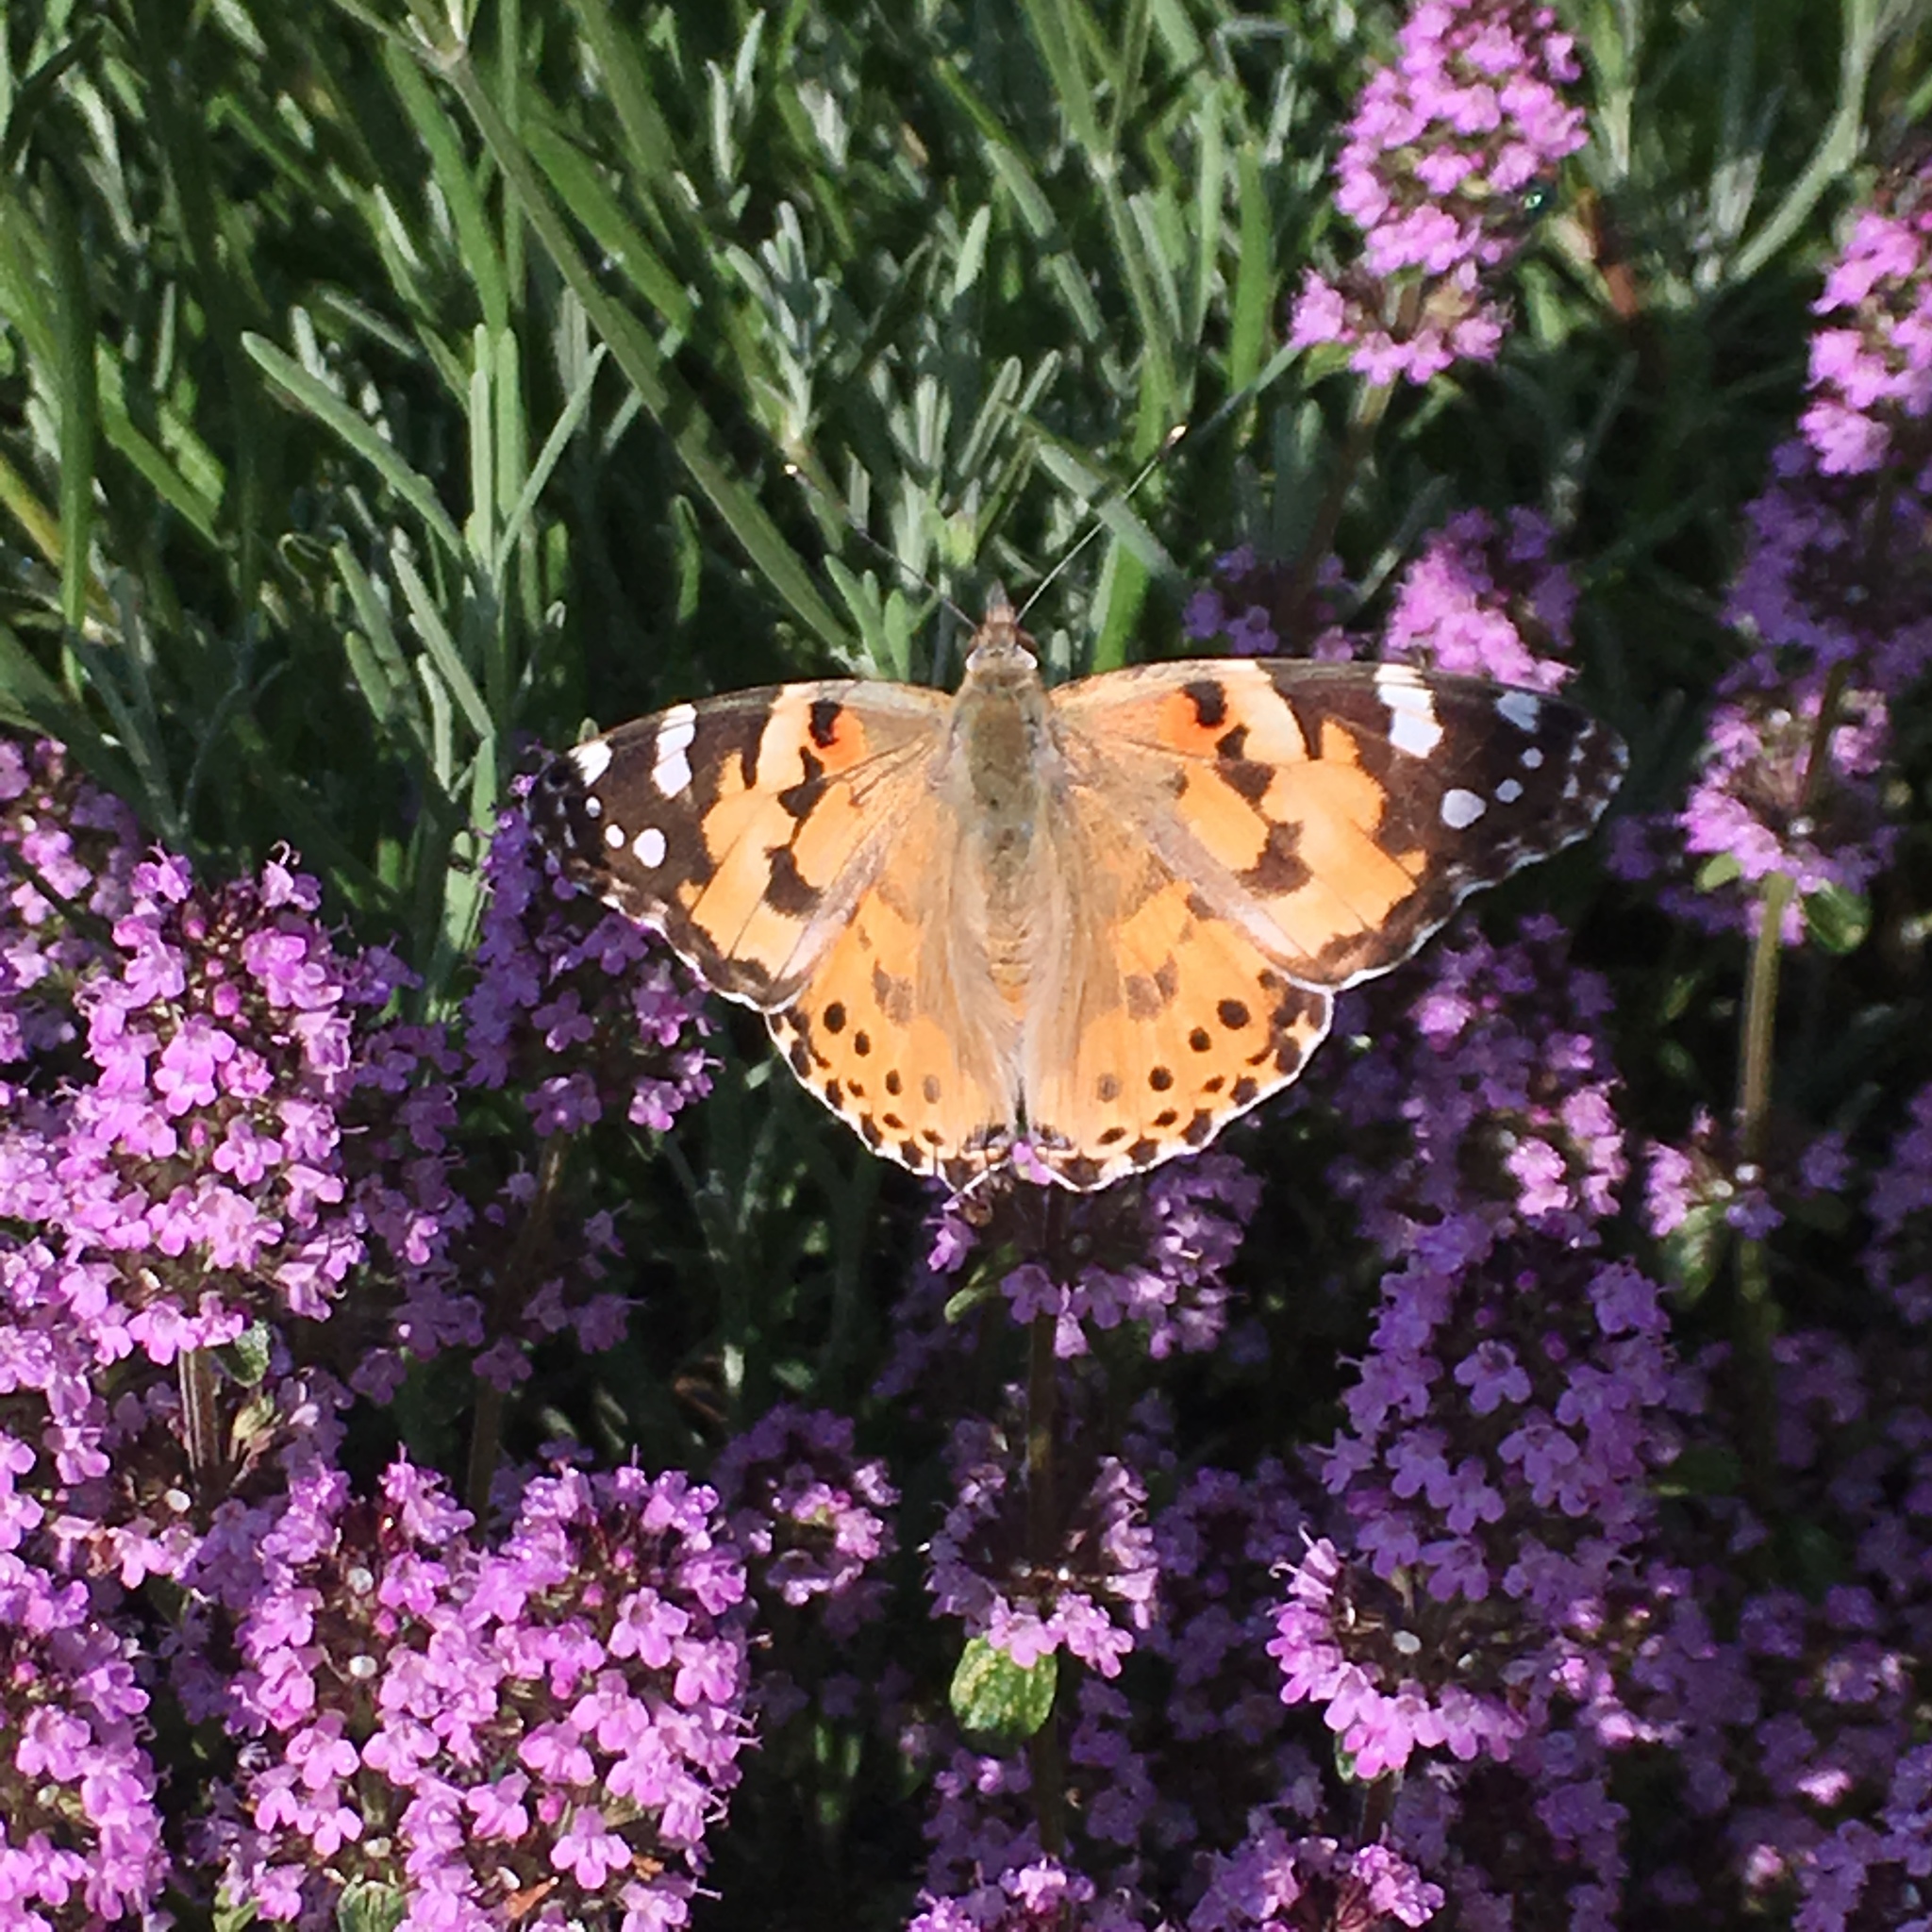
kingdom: Animalia
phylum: Arthropoda
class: Insecta
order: Lepidoptera
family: Nymphalidae
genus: Vanessa
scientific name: Vanessa cardui
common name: Painted lady
